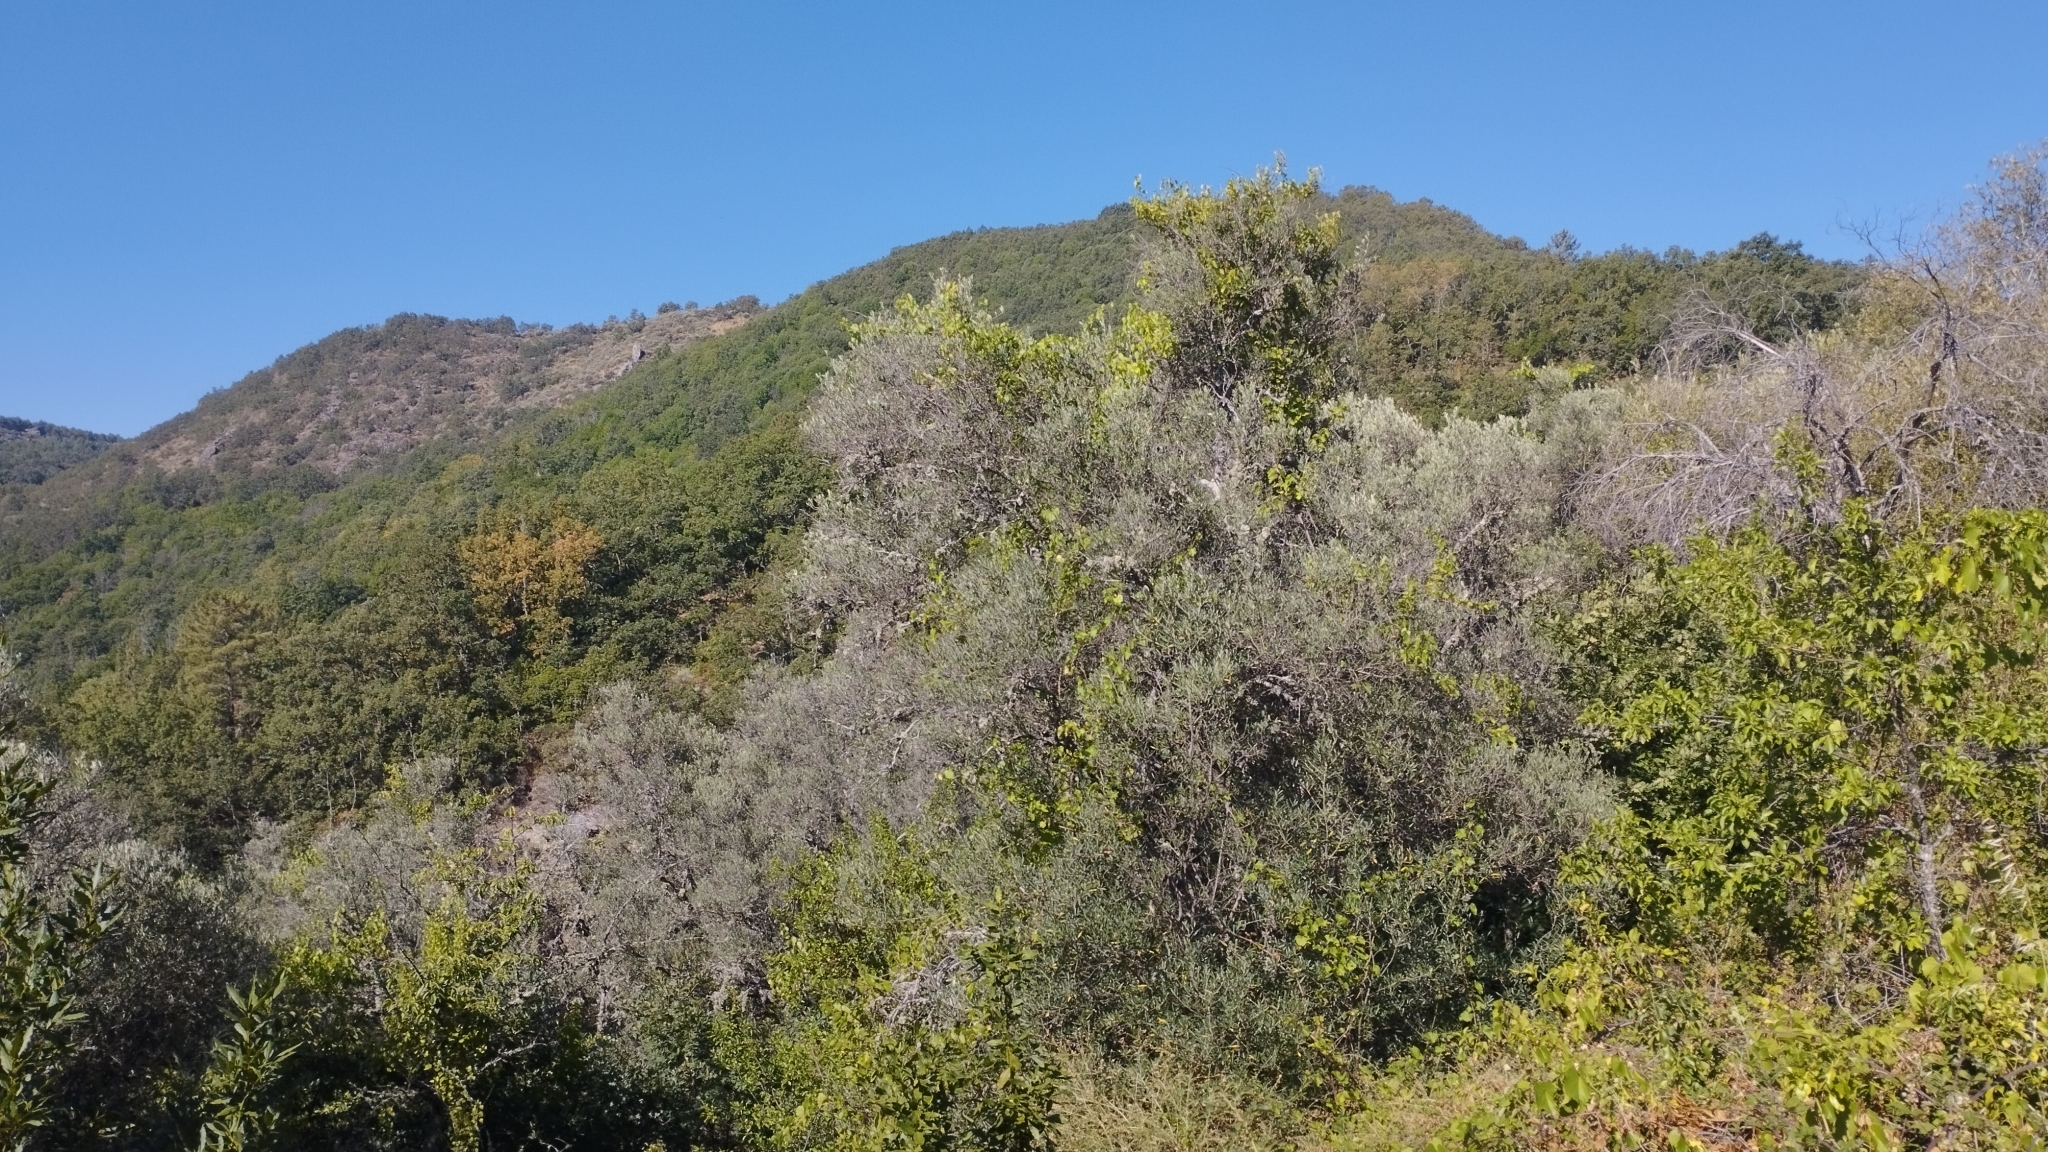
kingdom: Plantae
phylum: Tracheophyta
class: Magnoliopsida
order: Lamiales
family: Oleaceae
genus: Olea
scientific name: Olea europaea
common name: Olive
